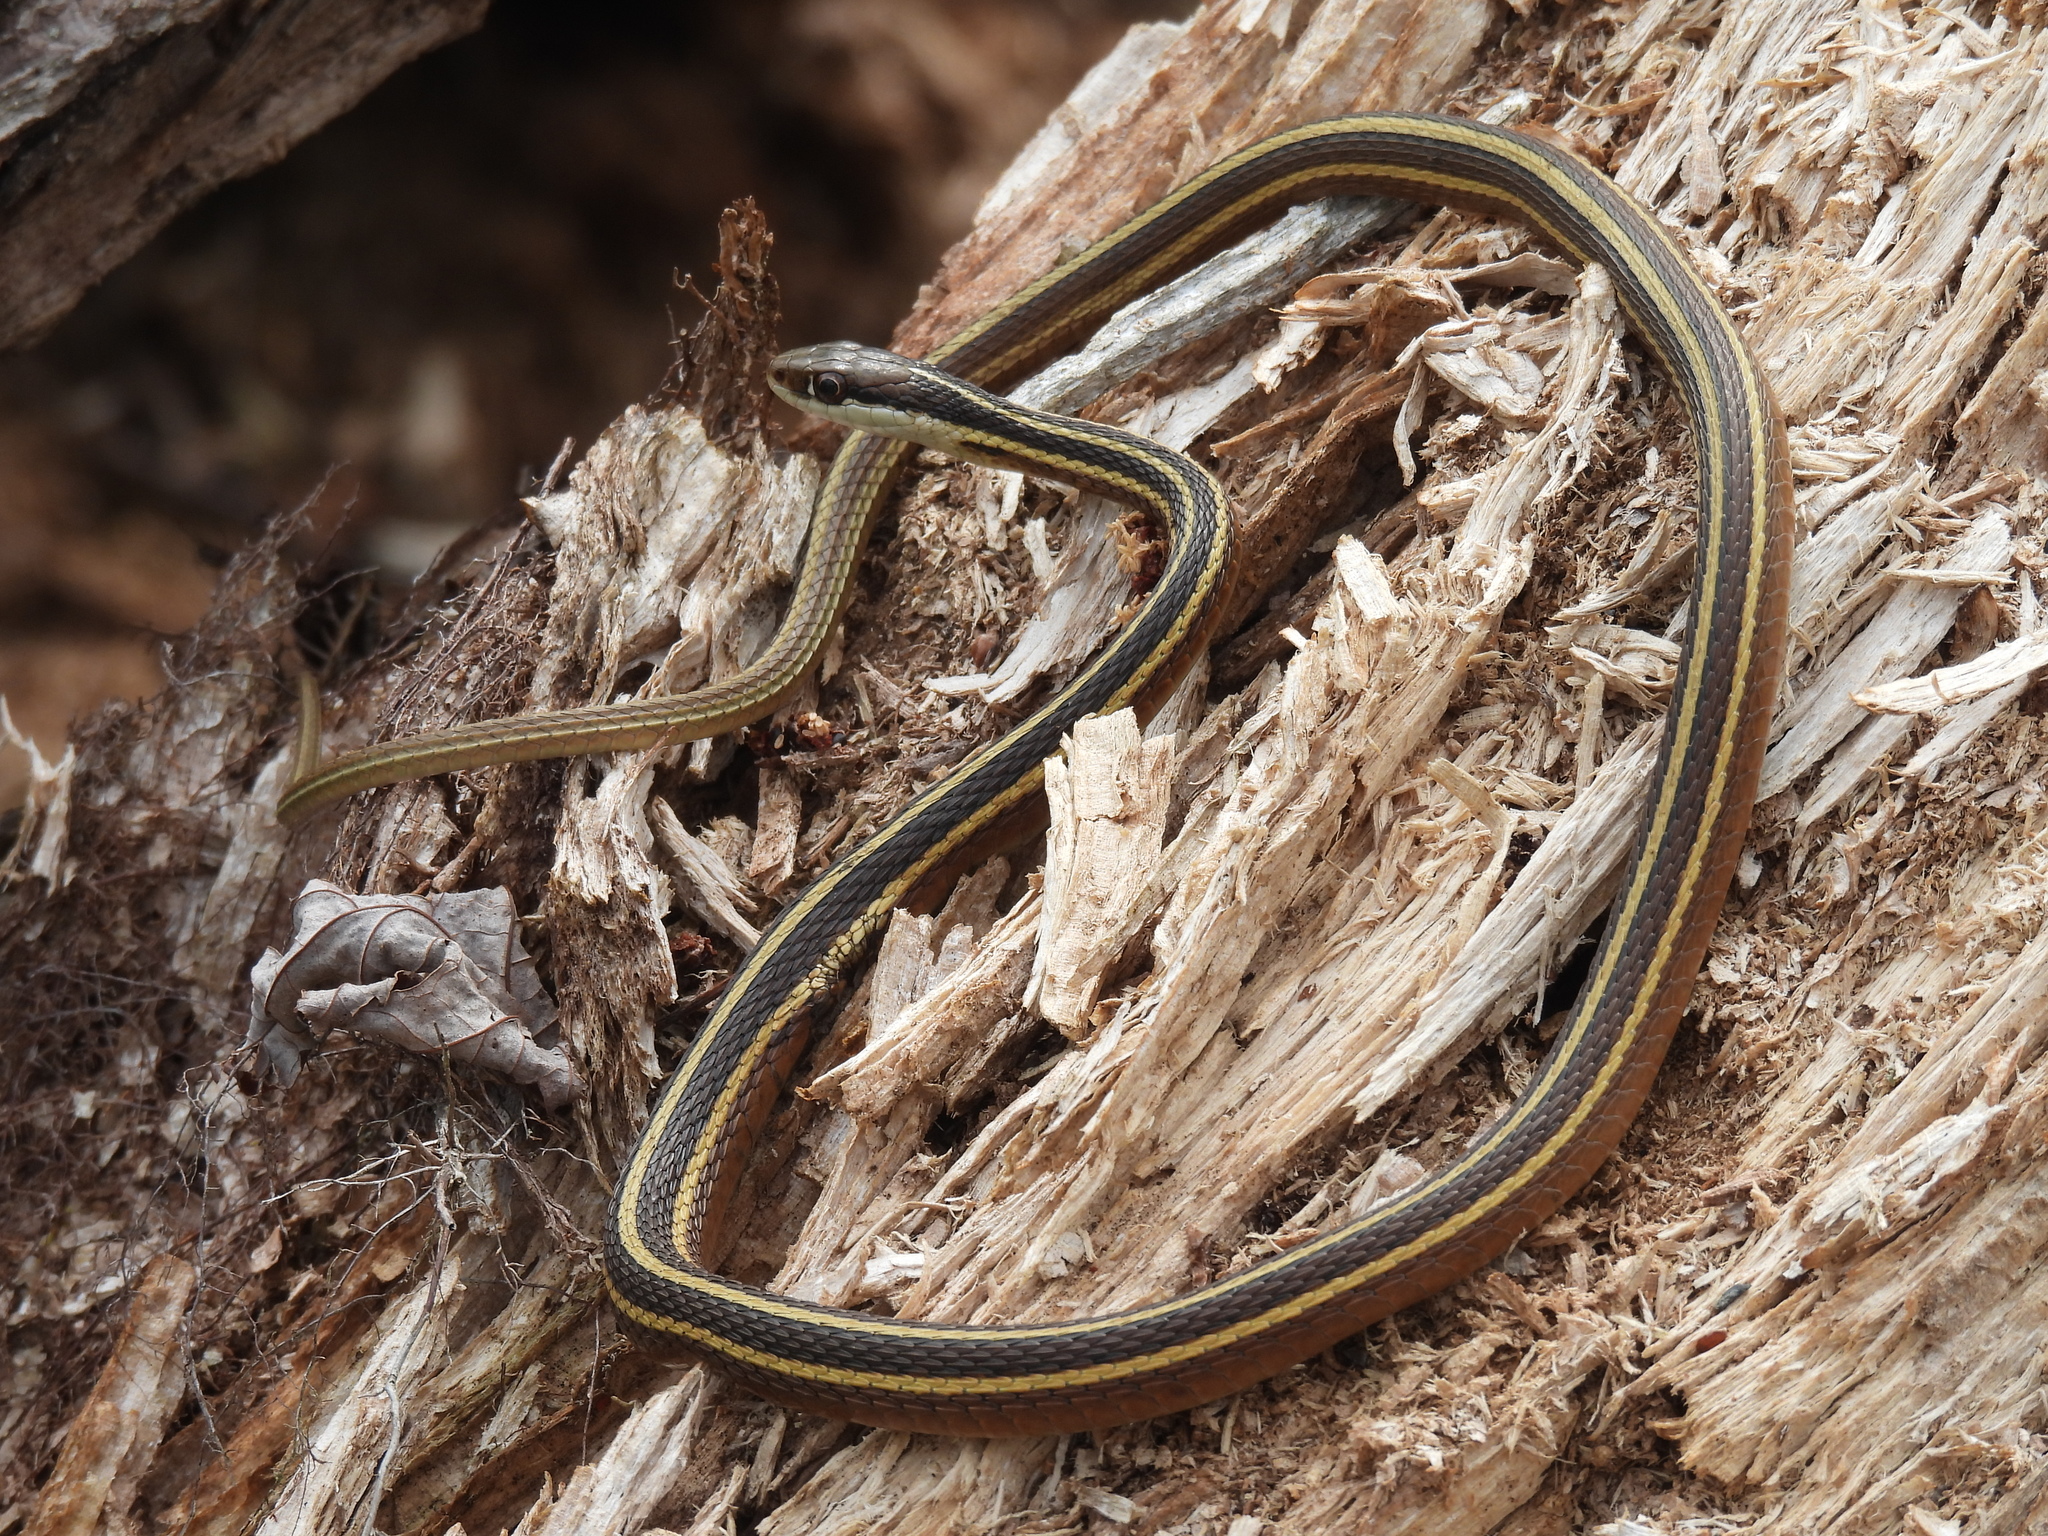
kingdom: Animalia
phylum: Chordata
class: Squamata
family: Colubridae
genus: Thamnophis
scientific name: Thamnophis saurita
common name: Eastern ribbonsnake
